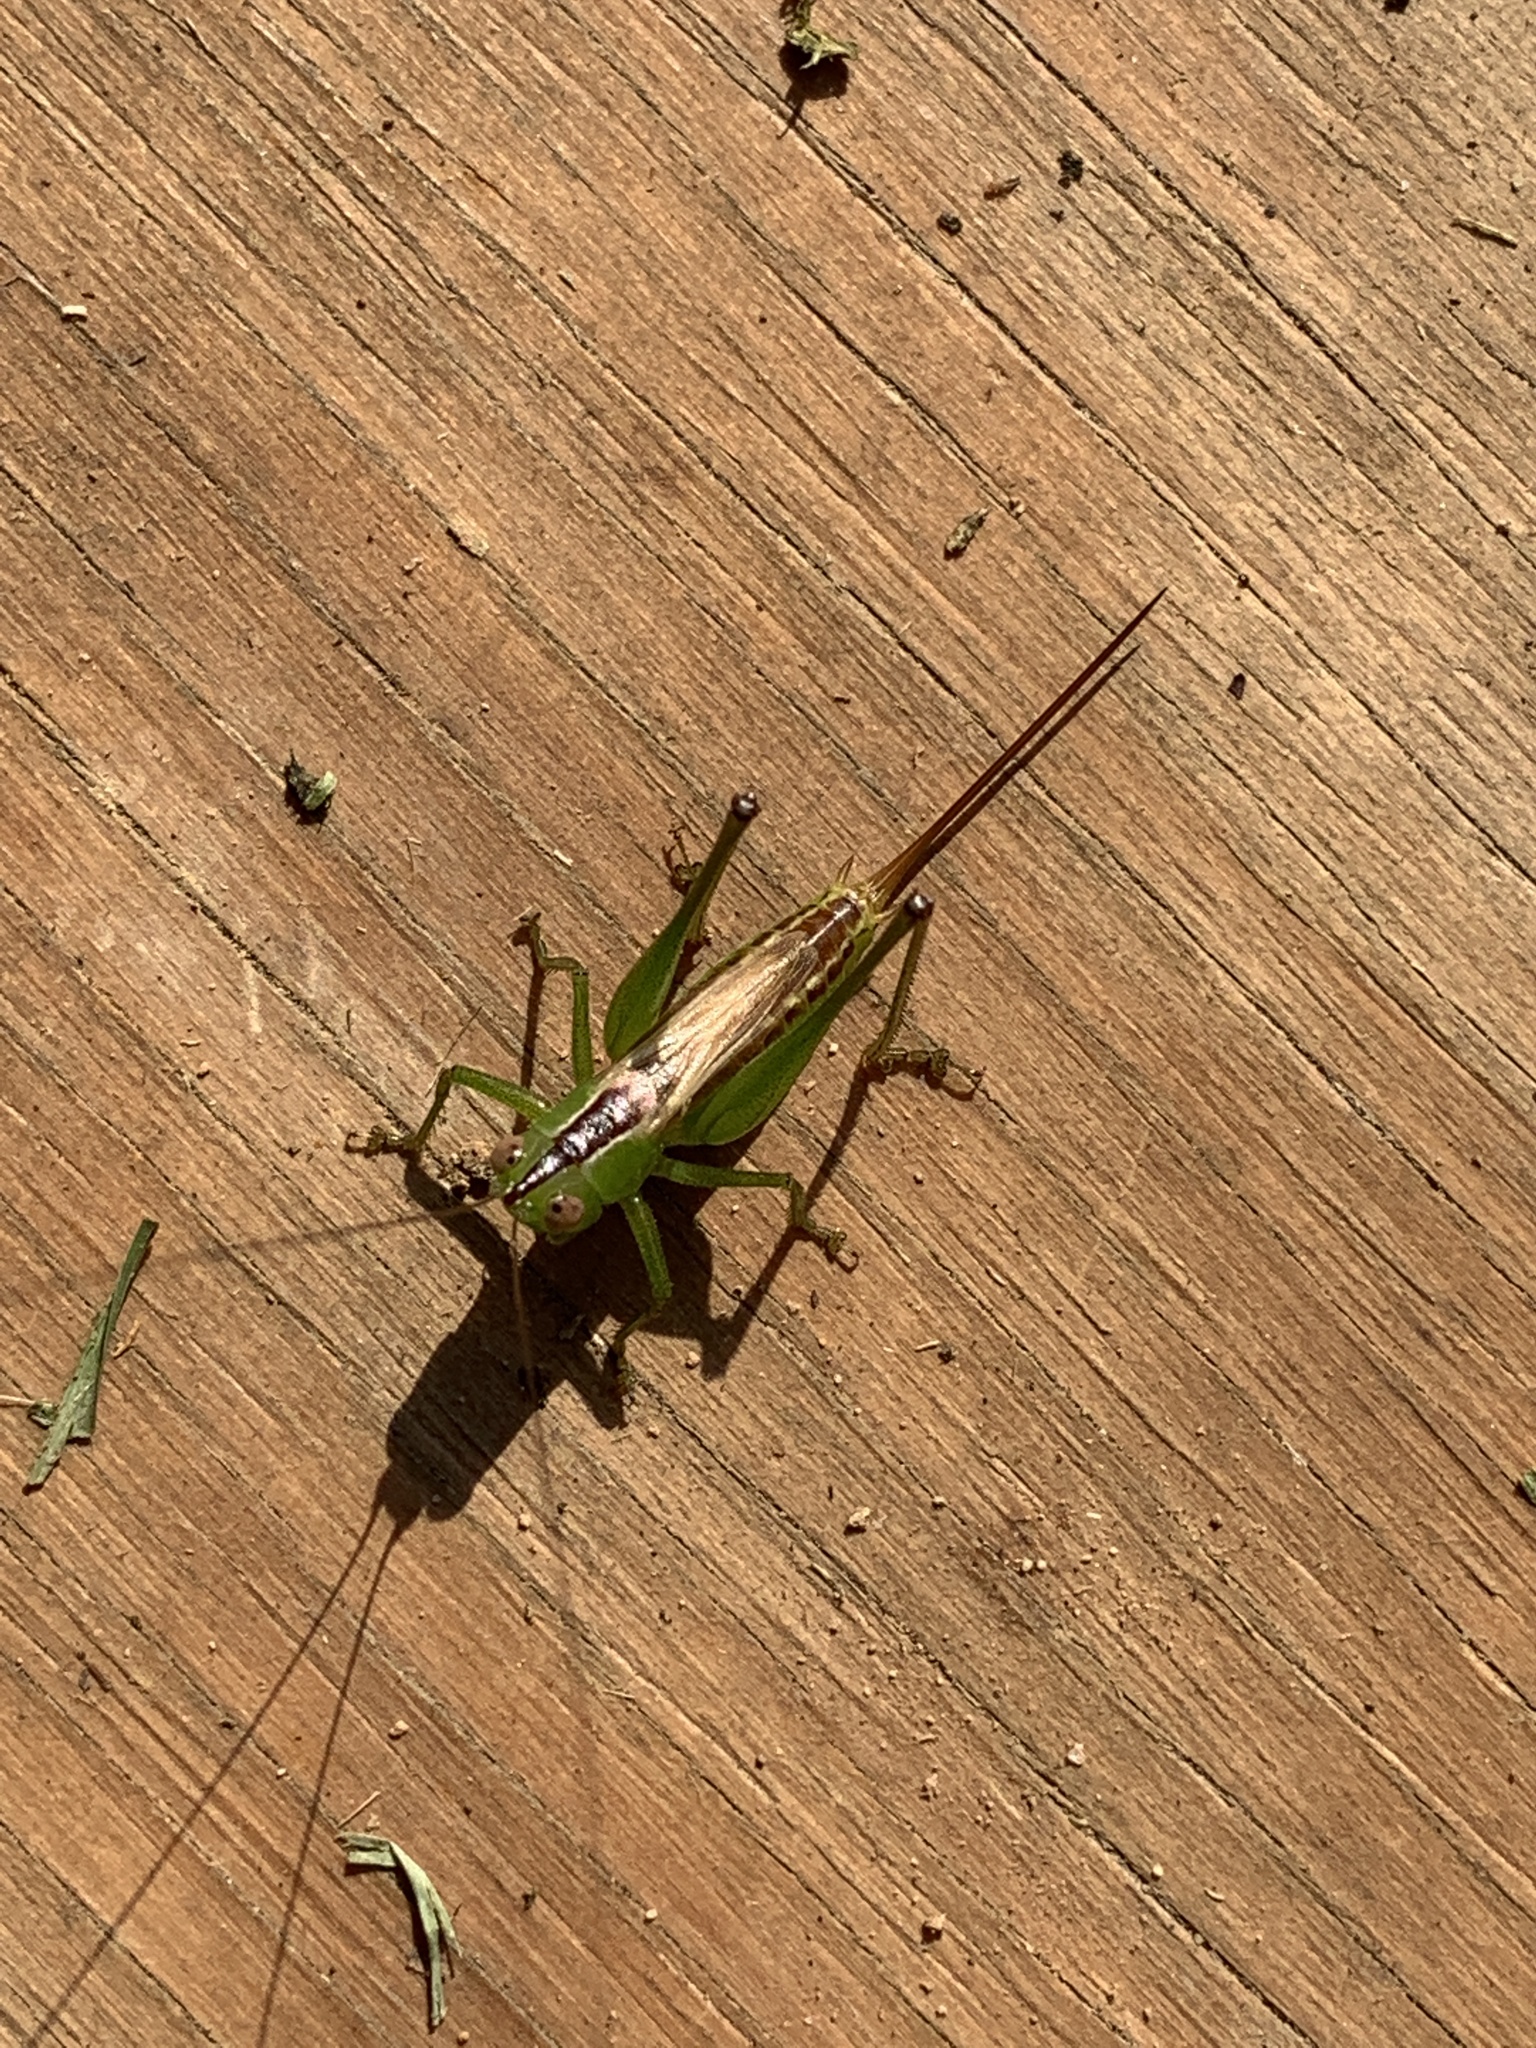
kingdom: Animalia
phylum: Arthropoda
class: Insecta
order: Orthoptera
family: Tettigoniidae
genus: Conocephalus
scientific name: Conocephalus brevipennis
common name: Short-winged meadow katydid
